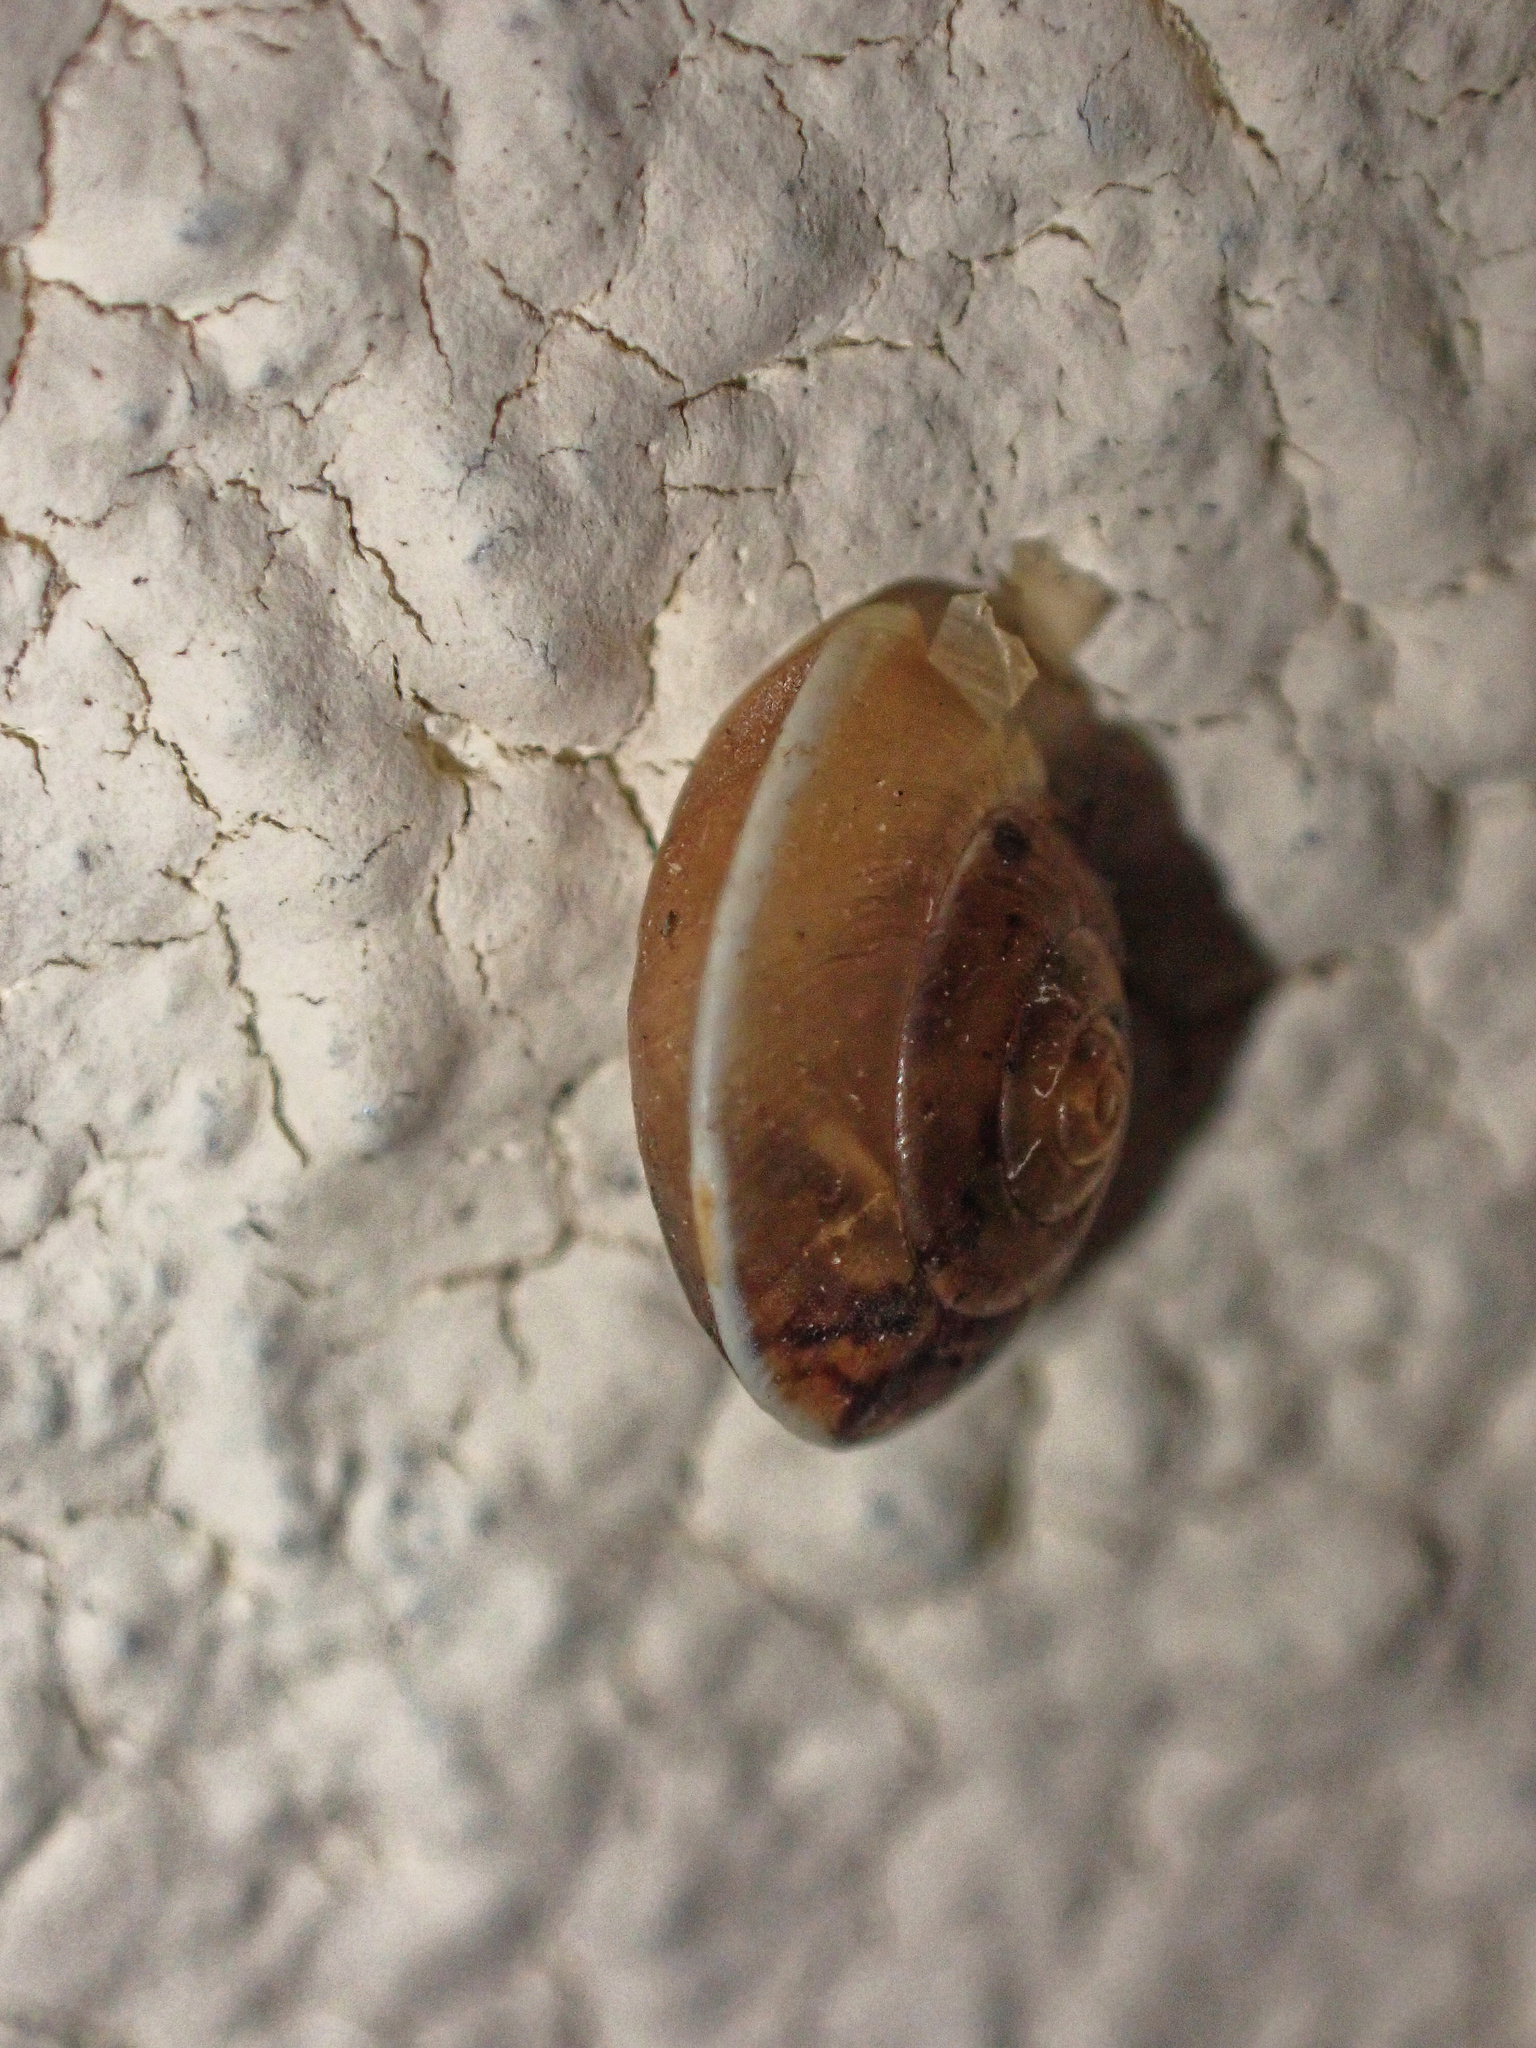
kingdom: Animalia
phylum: Mollusca
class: Gastropoda
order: Stylommatophora
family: Hygromiidae
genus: Hygromia
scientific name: Hygromia cinctella
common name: Girdled snail
